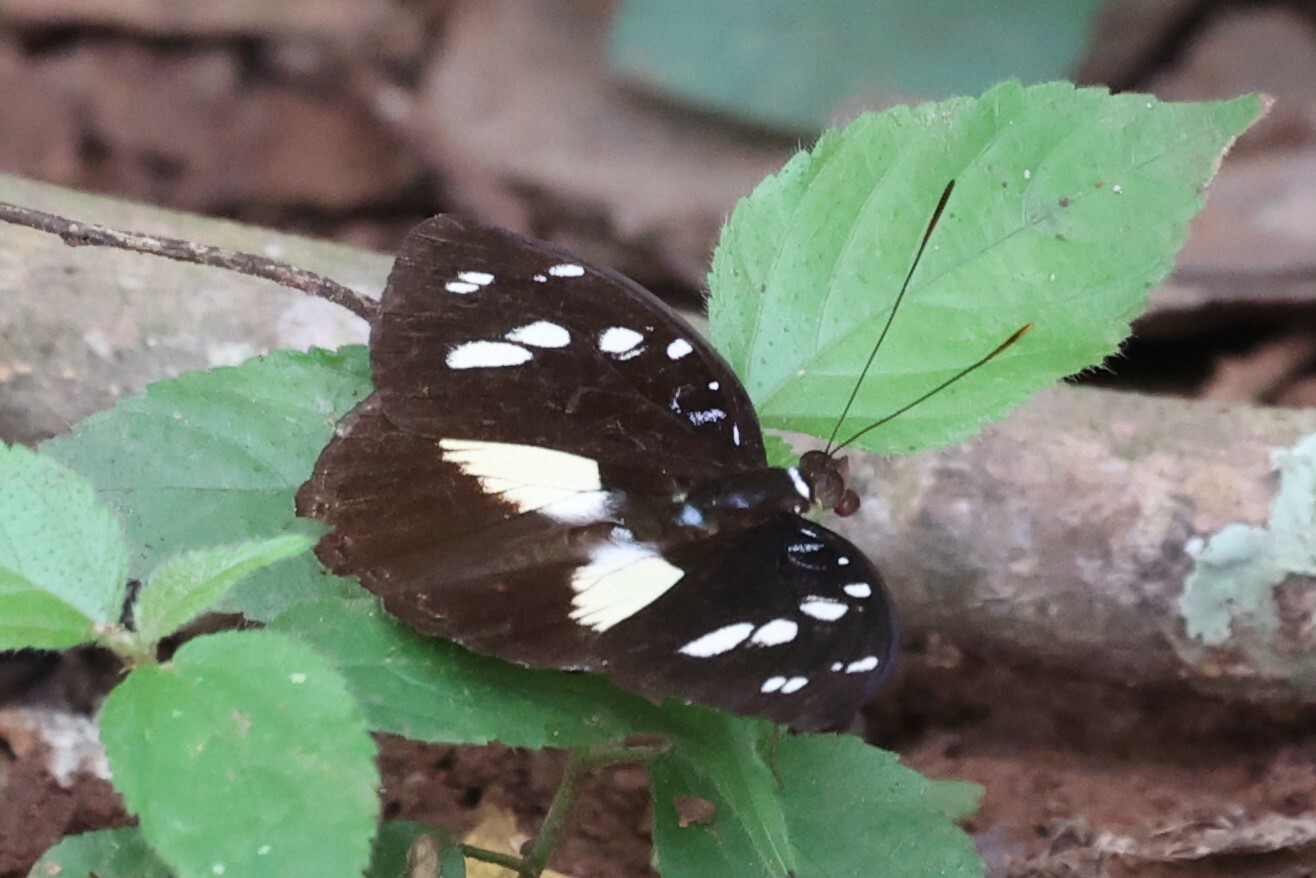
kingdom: Animalia
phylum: Arthropoda
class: Insecta
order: Lepidoptera
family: Nymphalidae
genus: Aterica
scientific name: Aterica galene
